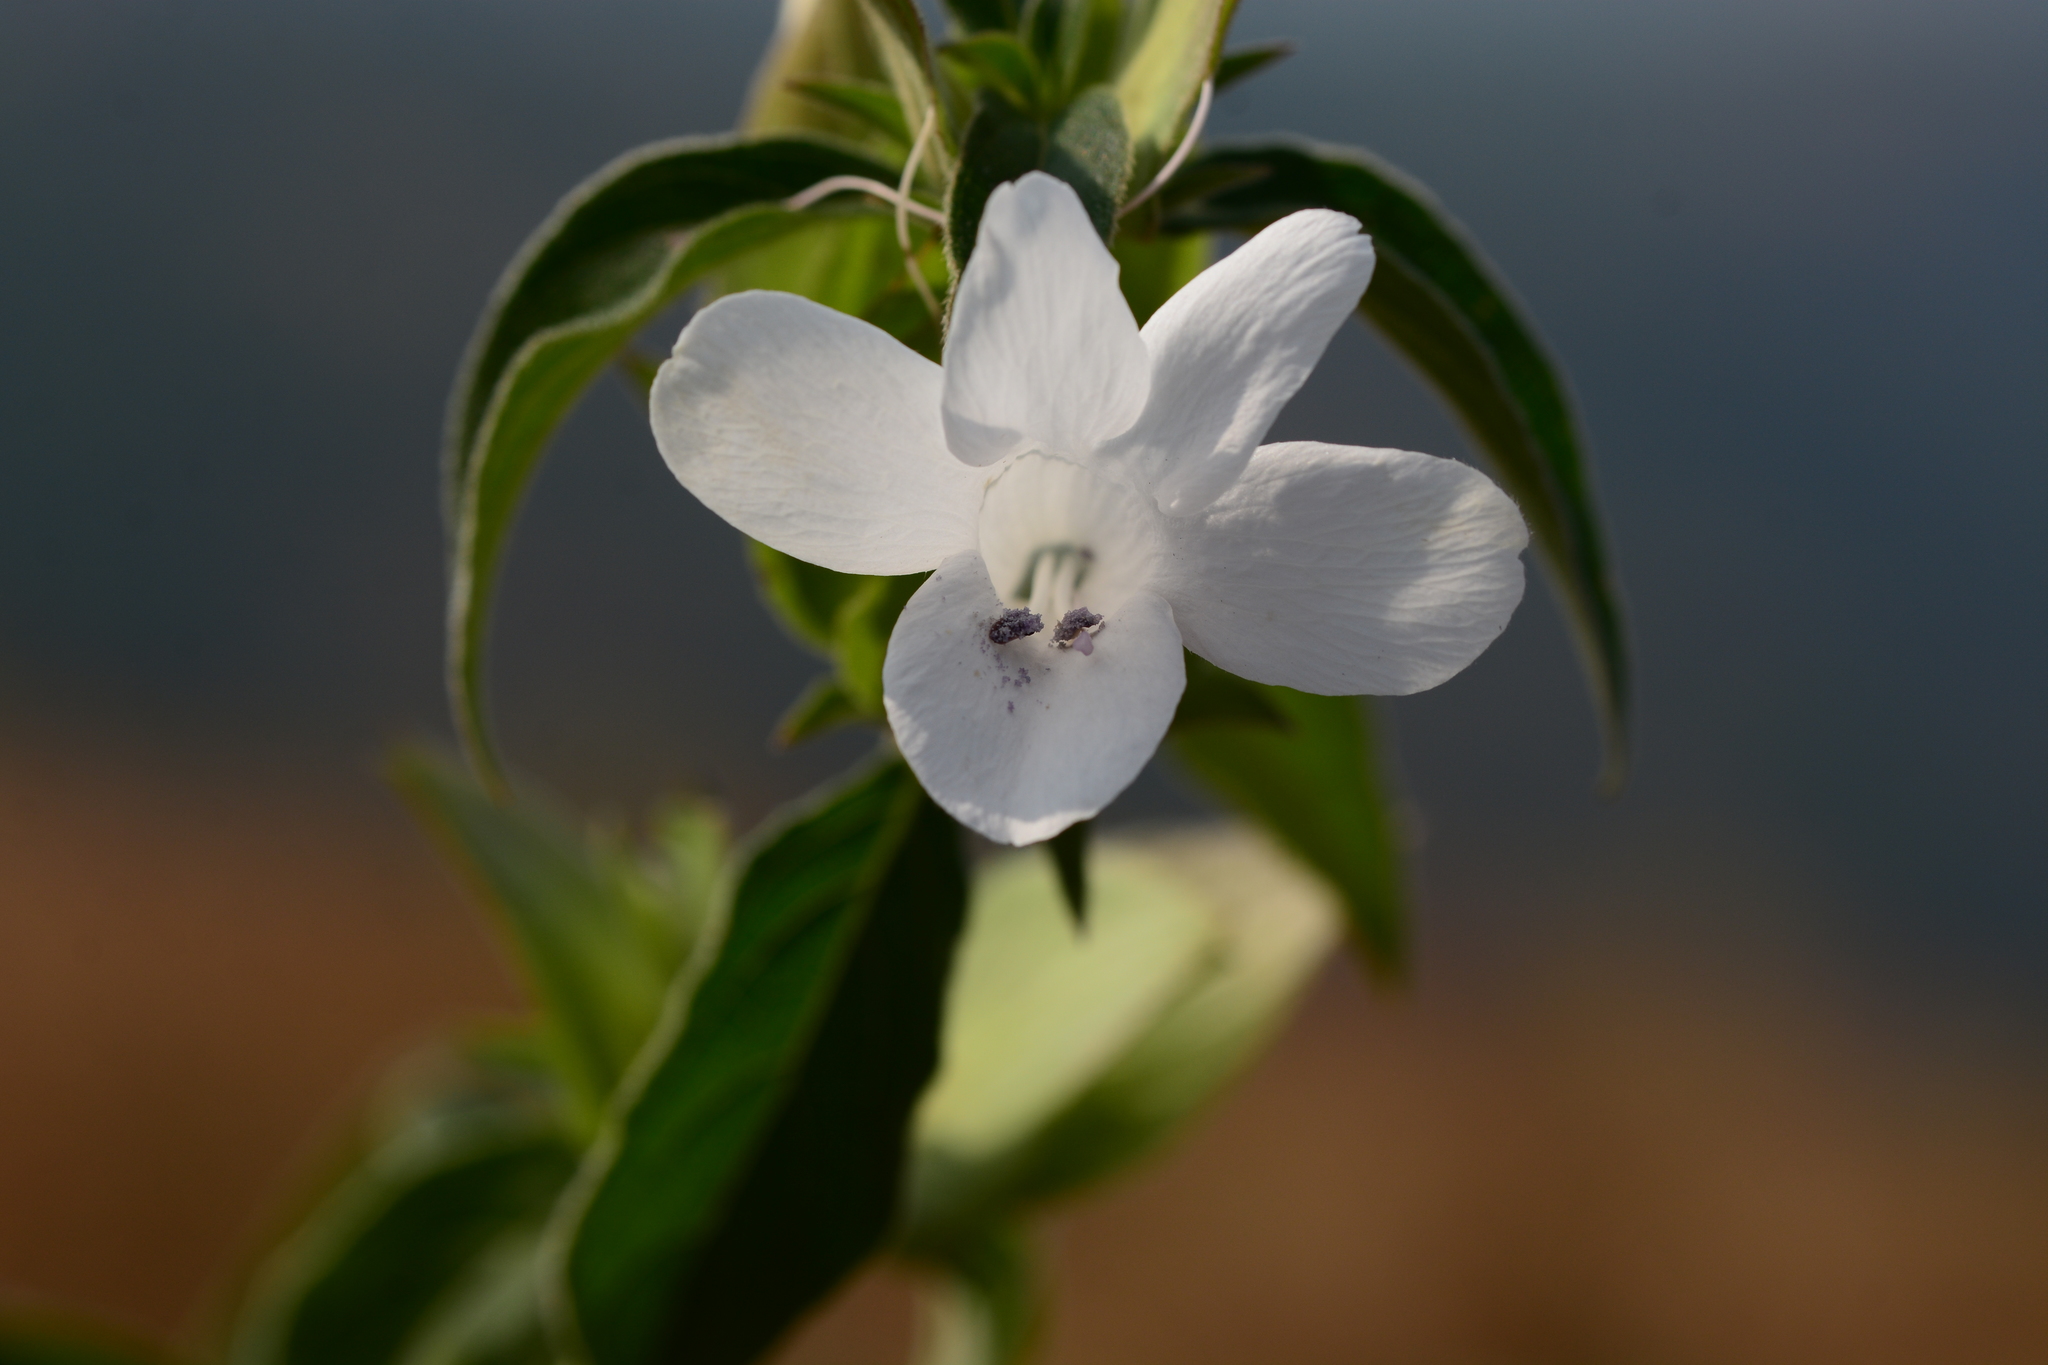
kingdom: Plantae
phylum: Tracheophyta
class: Magnoliopsida
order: Lamiales
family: Acanthaceae
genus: Barleria
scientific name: Barleria lawii
